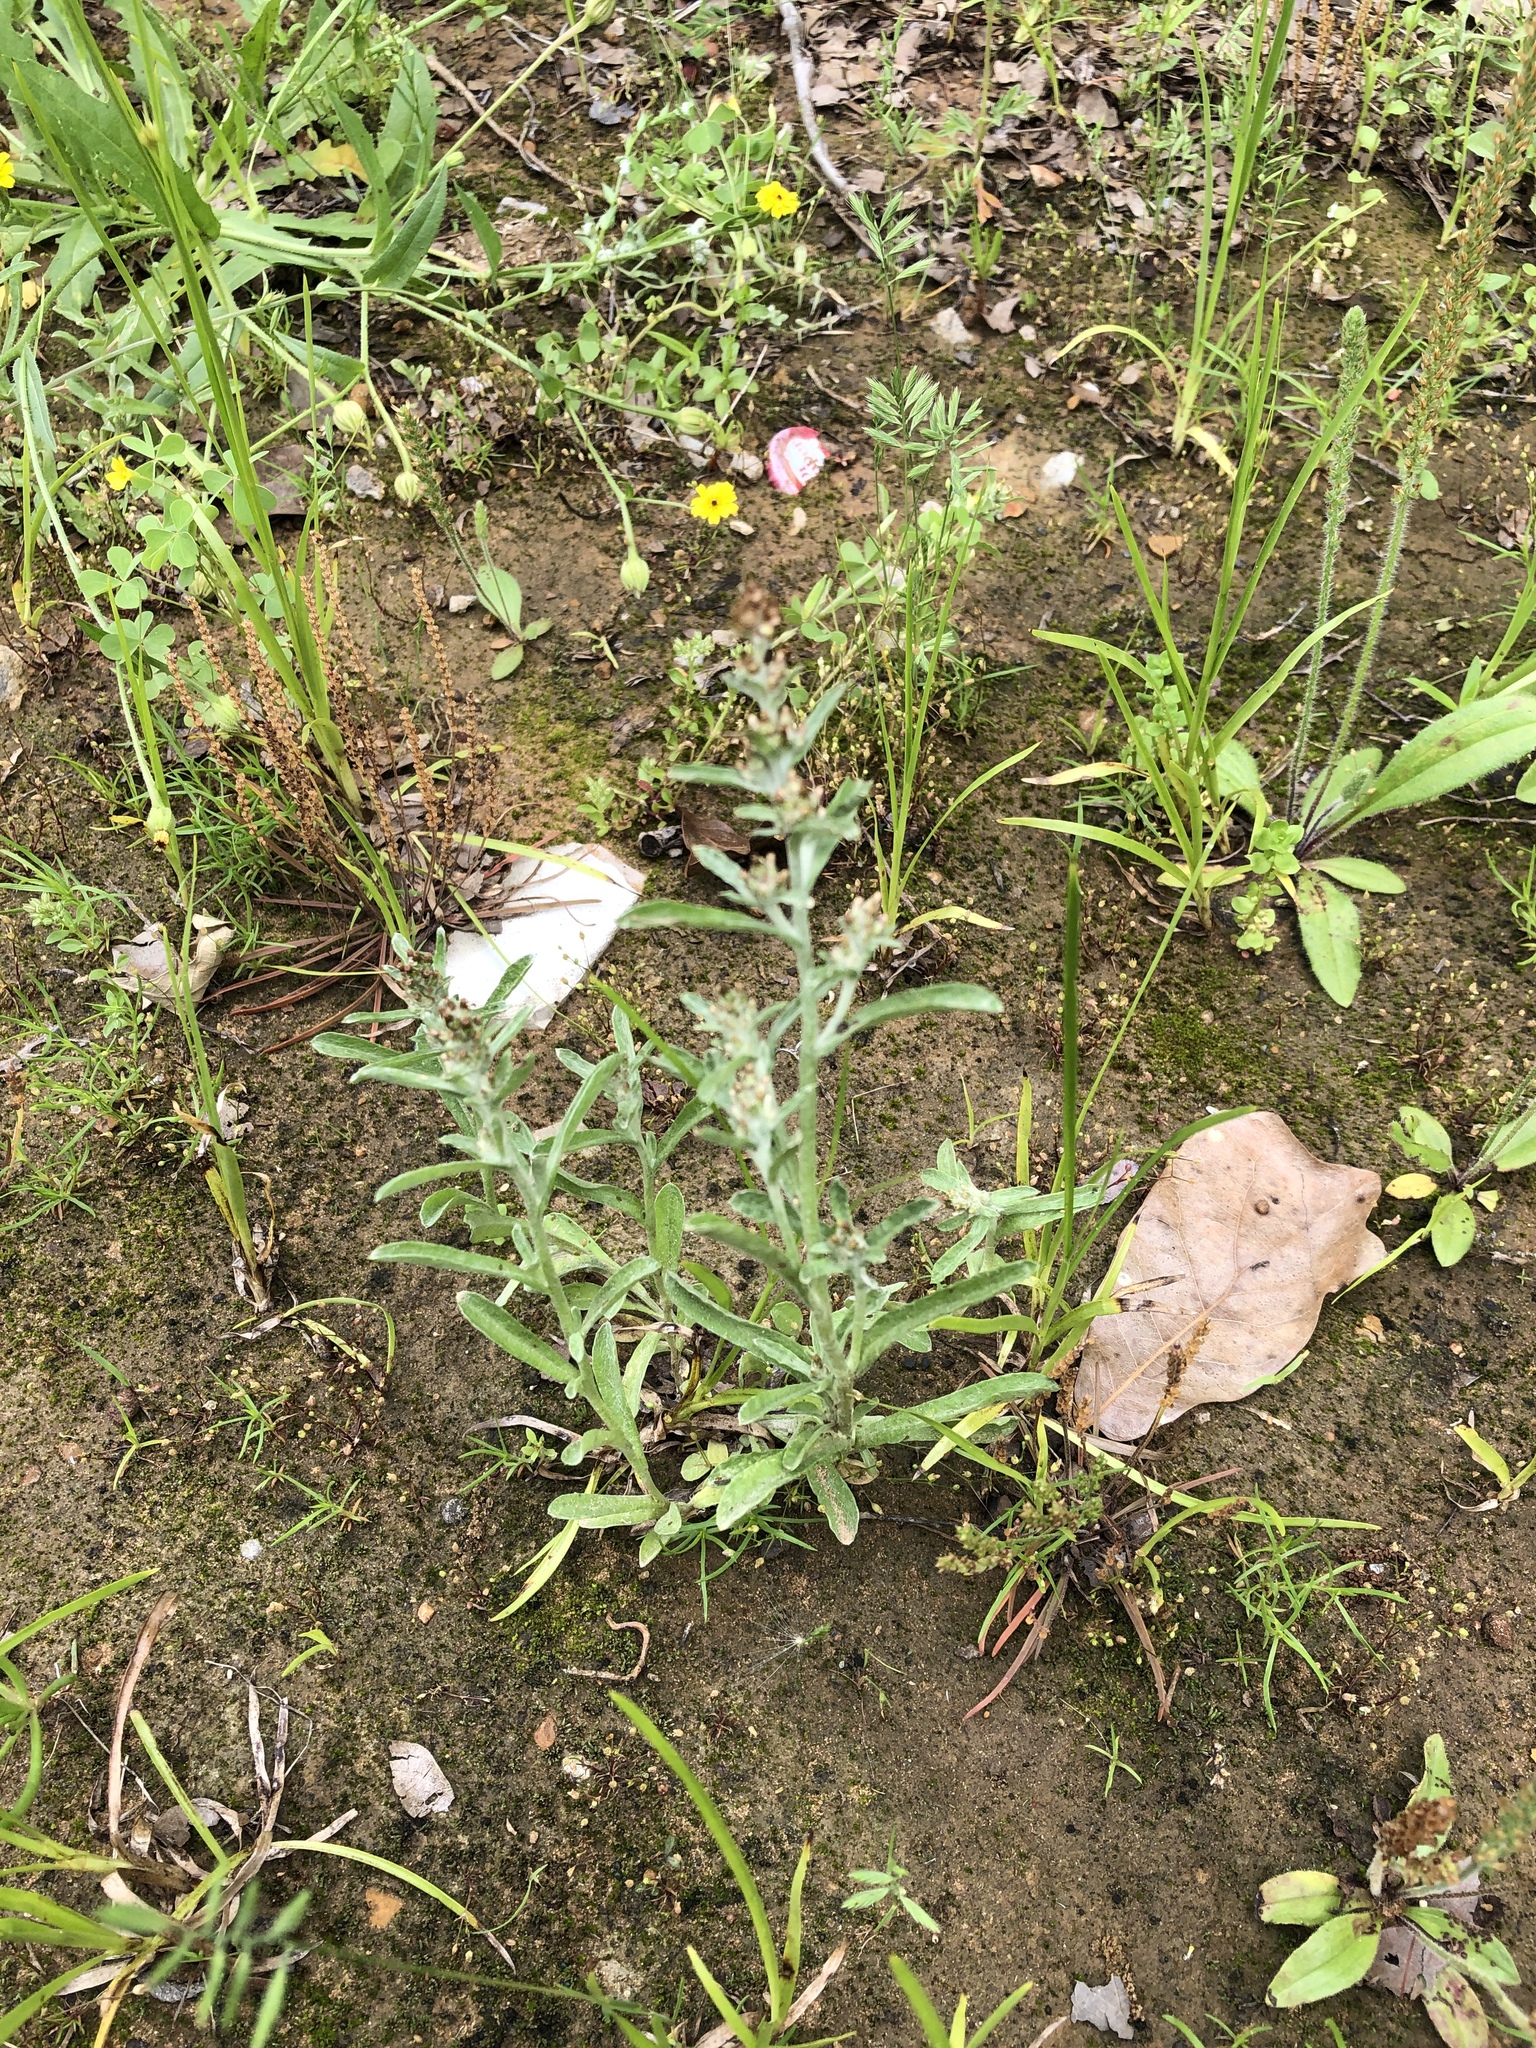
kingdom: Plantae
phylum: Tracheophyta
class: Magnoliopsida
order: Asterales
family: Asteraceae
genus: Gamochaeta
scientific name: Gamochaeta pensylvanica
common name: Pennsylvania everlasting
